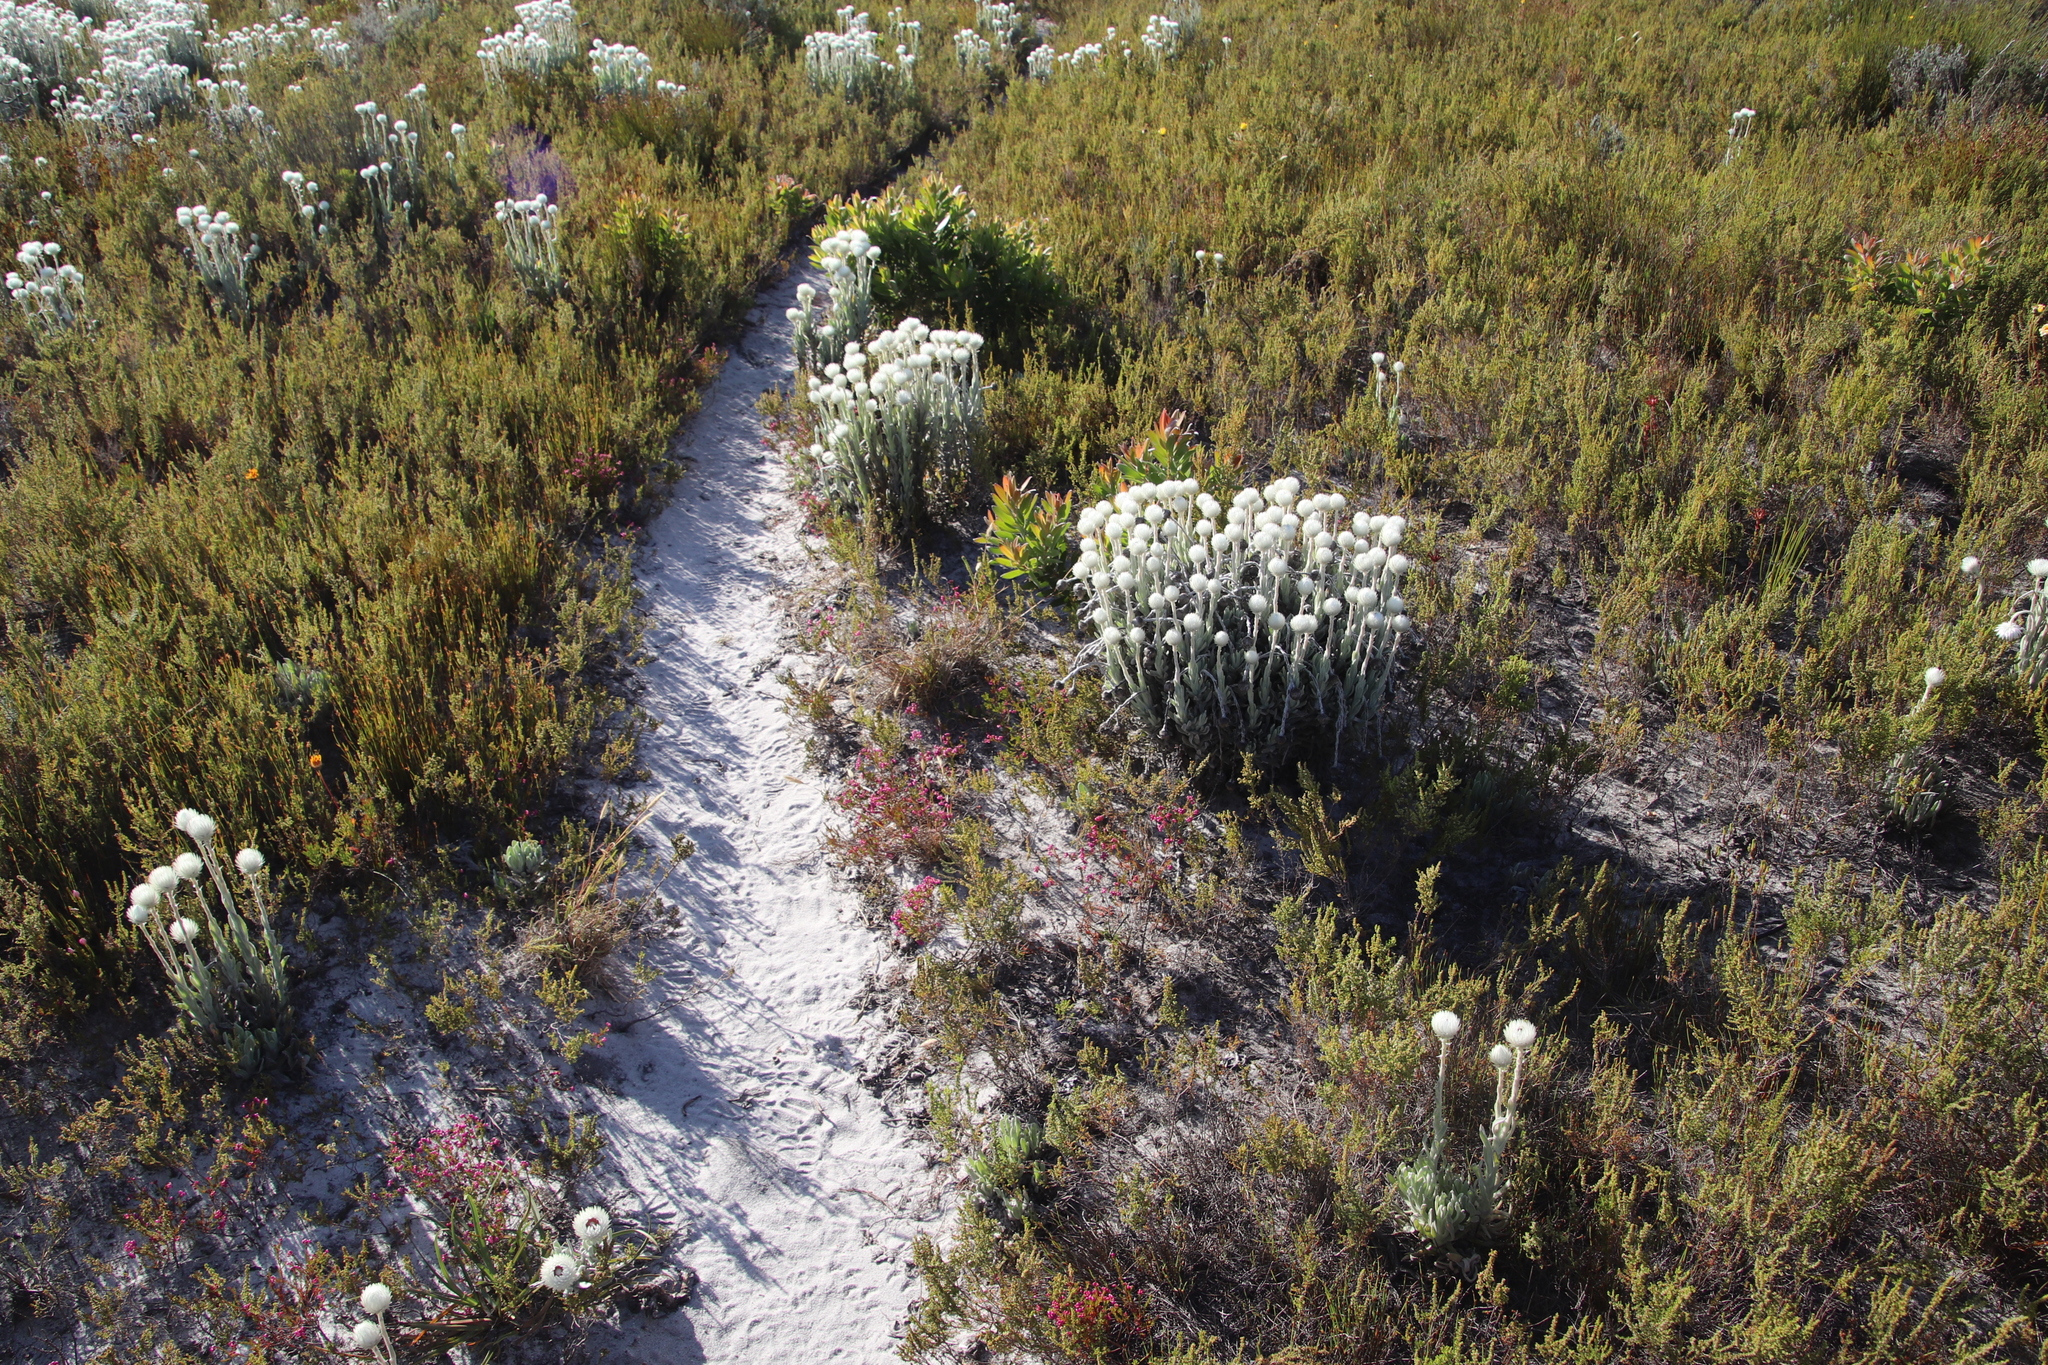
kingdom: Plantae
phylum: Tracheophyta
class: Magnoliopsida
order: Ericales
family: Ericaceae
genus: Erica
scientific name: Erica multumbellifera
